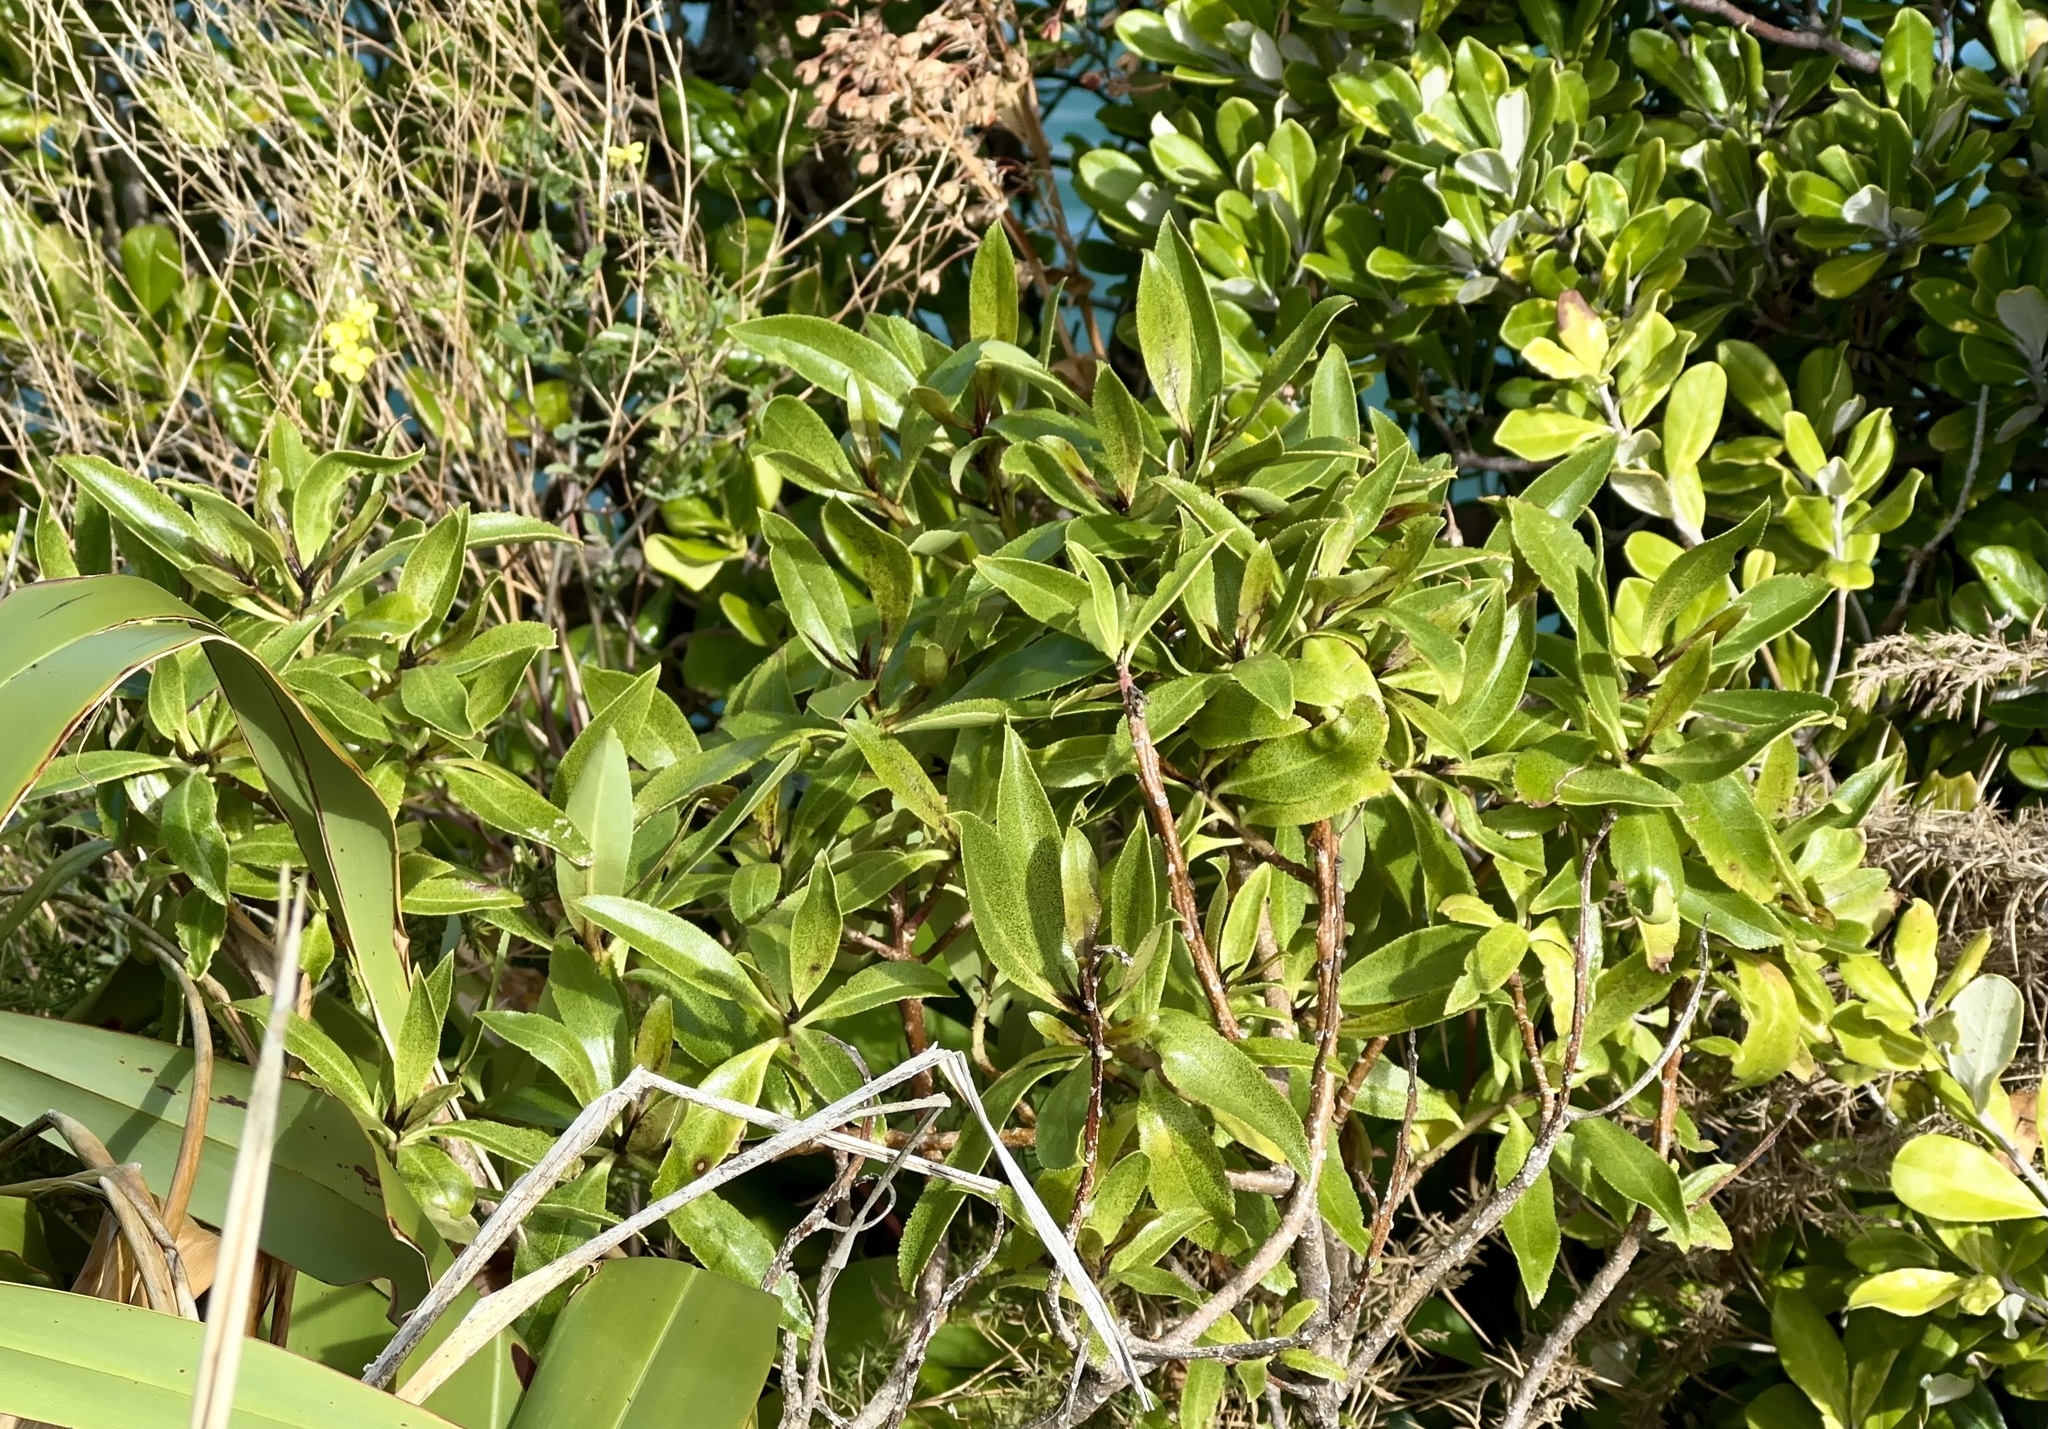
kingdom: Plantae
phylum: Tracheophyta
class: Magnoliopsida
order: Lamiales
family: Scrophulariaceae
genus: Myoporum
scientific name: Myoporum laetum
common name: Ngaio tree
